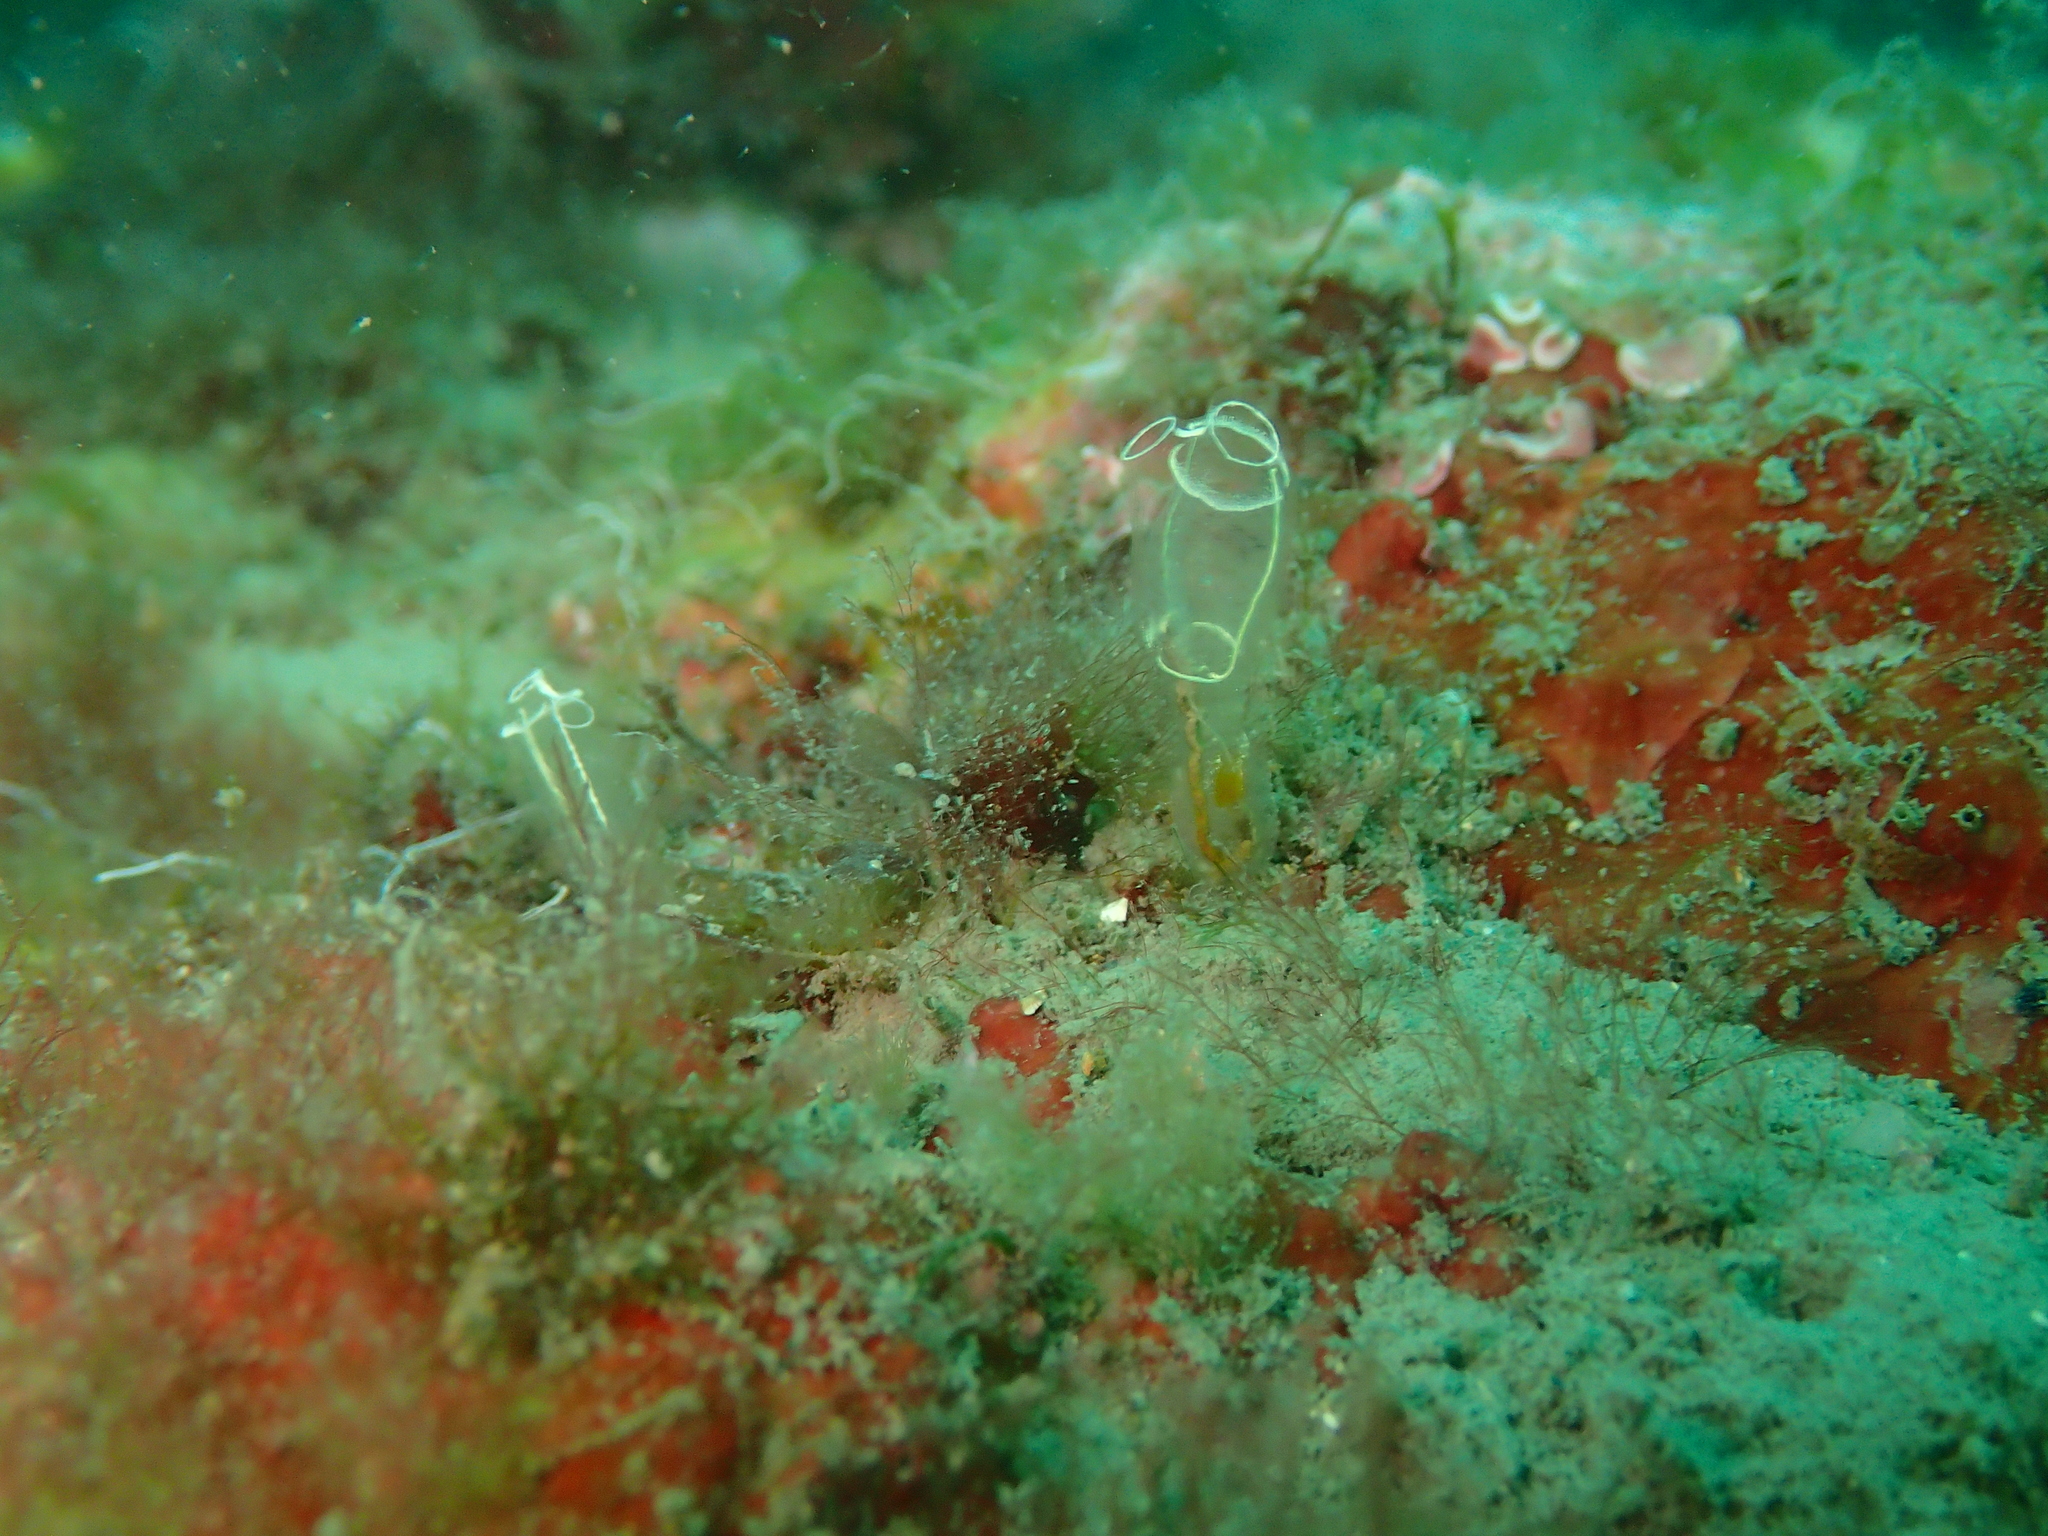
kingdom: Animalia
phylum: Chordata
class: Ascidiacea
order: Aplousobranchia
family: Clavelinidae
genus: Clavelina
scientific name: Clavelina lepadiformis
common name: Light bulb tunicate
